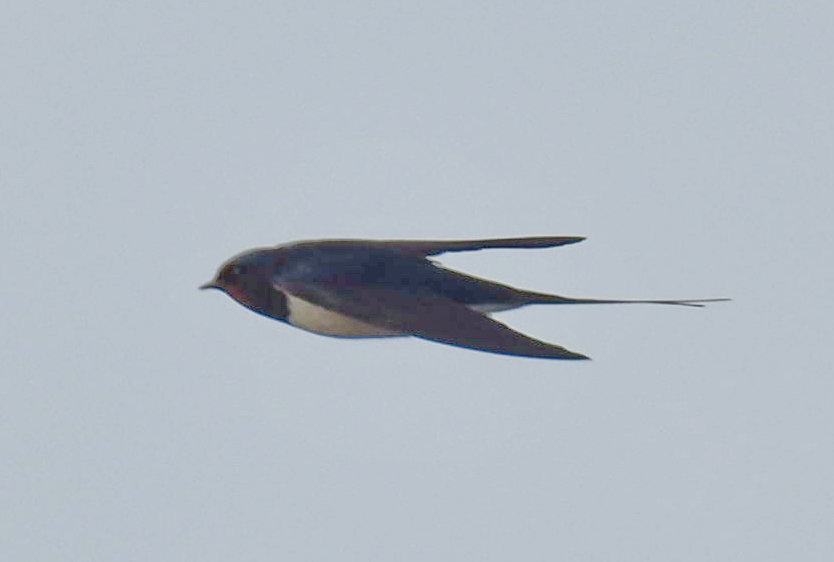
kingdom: Animalia
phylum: Chordata
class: Aves
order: Passeriformes
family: Hirundinidae
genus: Hirundo
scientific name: Hirundo rustica
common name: Barn swallow
